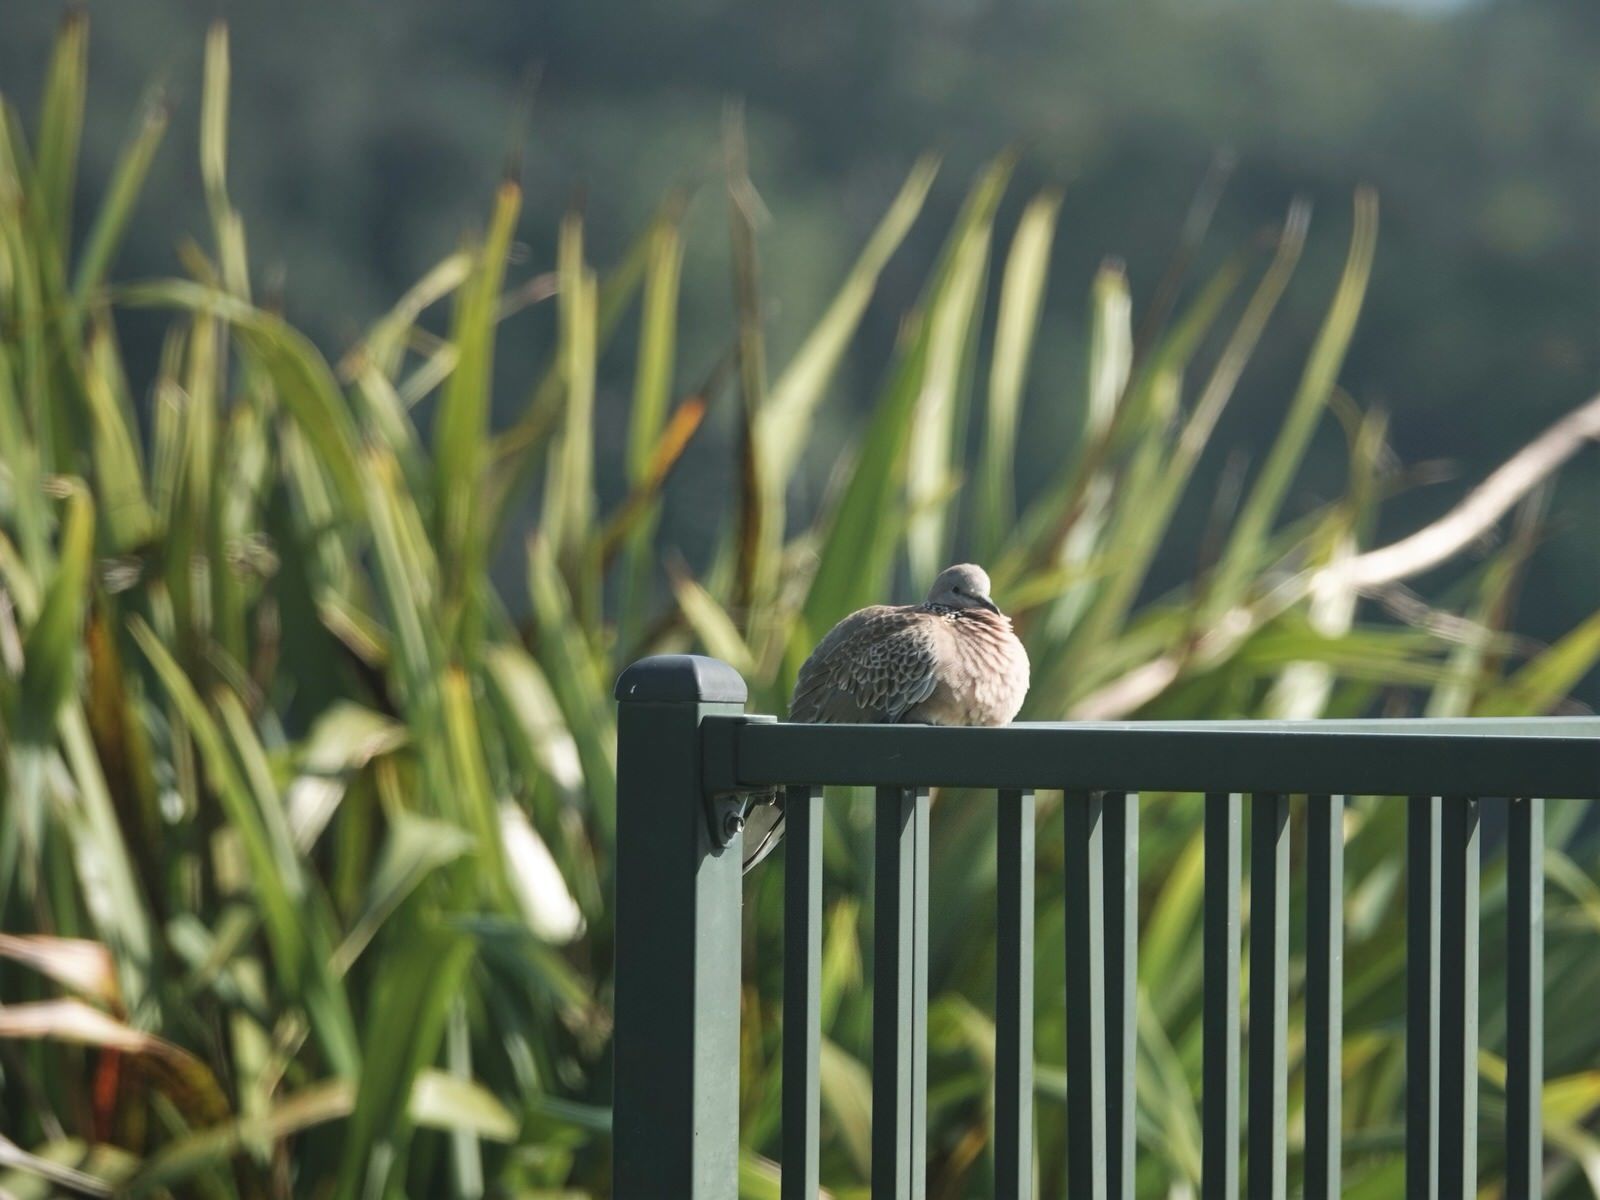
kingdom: Animalia
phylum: Chordata
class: Aves
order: Columbiformes
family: Columbidae
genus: Spilopelia
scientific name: Spilopelia chinensis
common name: Spotted dove
